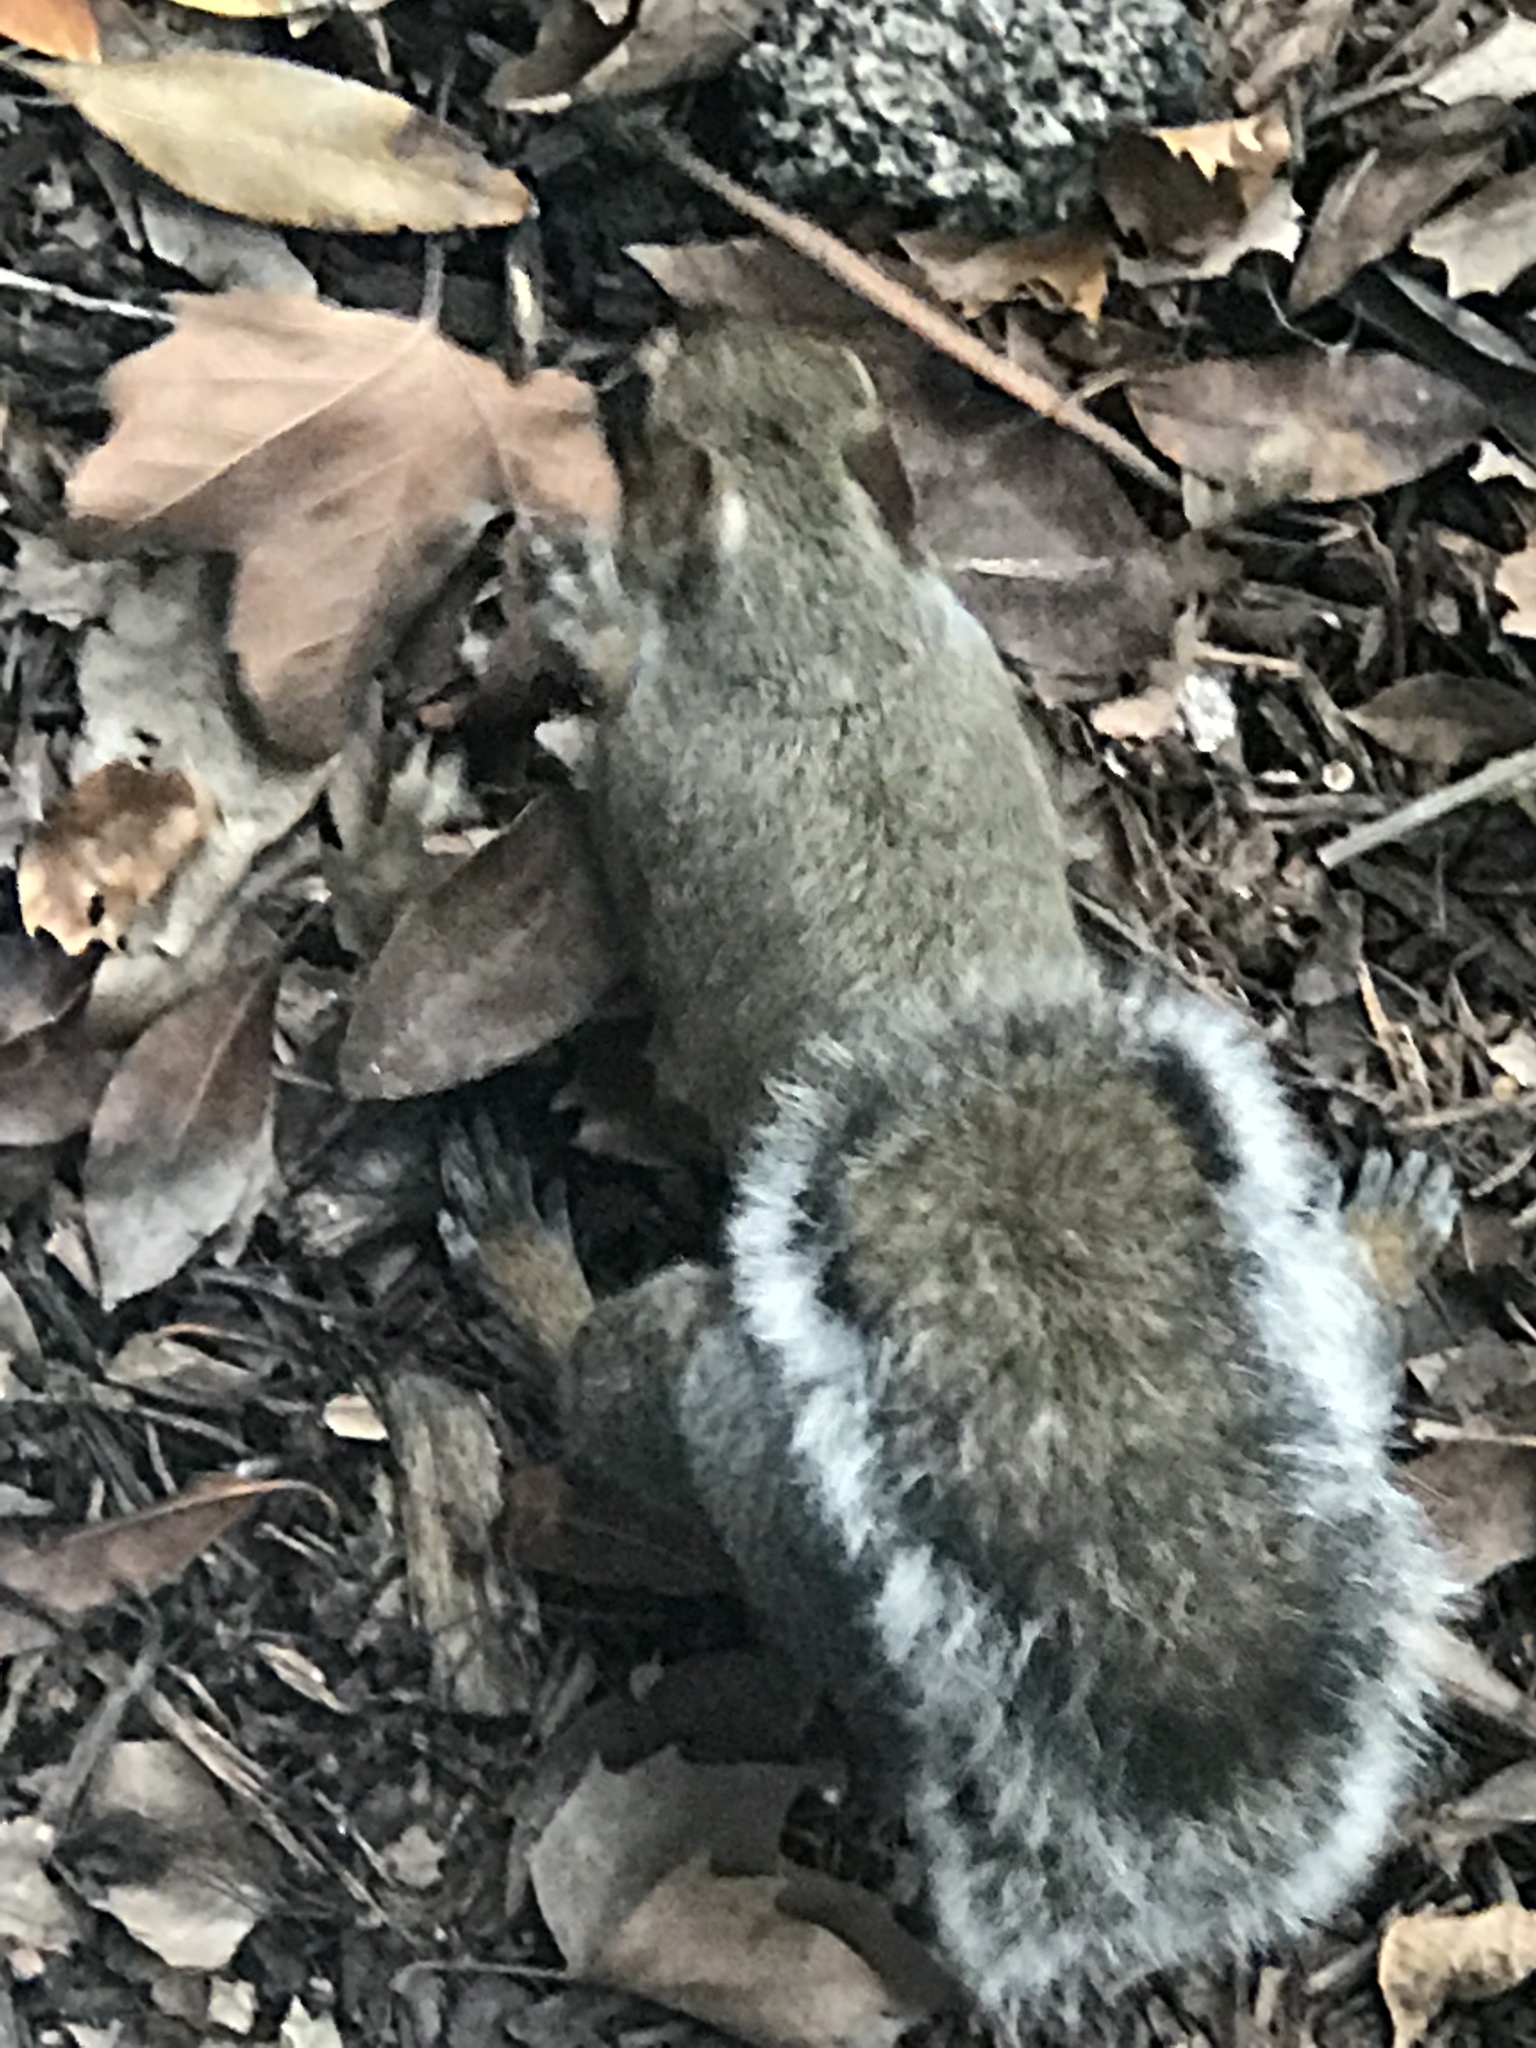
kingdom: Animalia
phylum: Chordata
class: Mammalia
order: Rodentia
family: Sciuridae
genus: Sciurus
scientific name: Sciurus carolinensis
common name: Eastern gray squirrel
